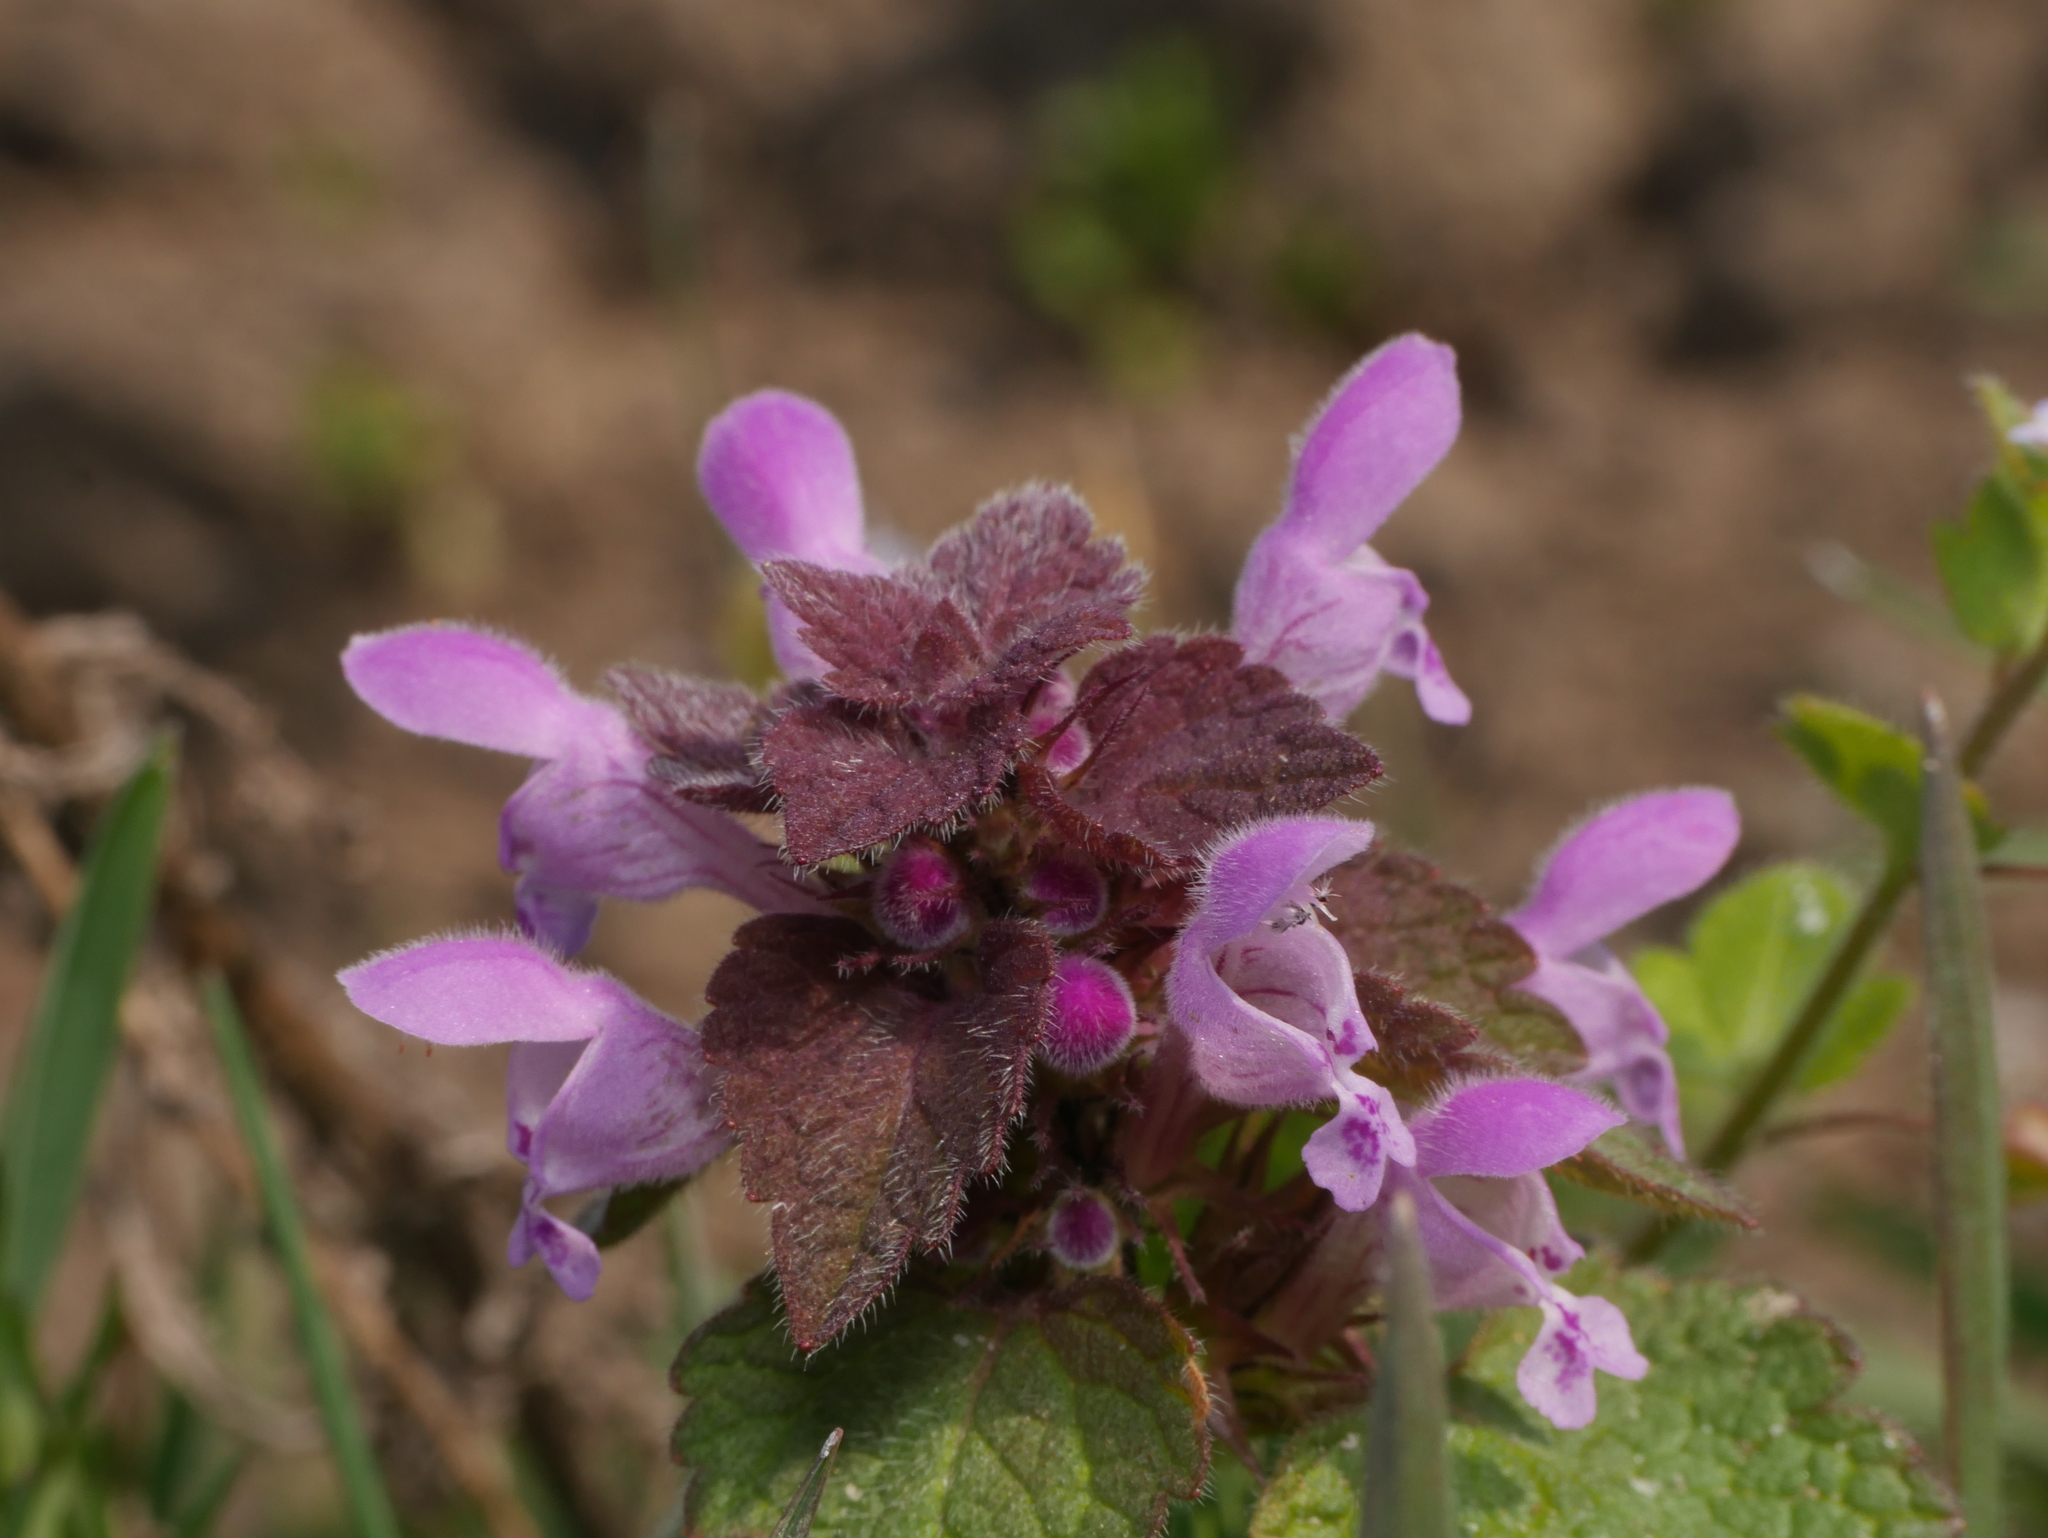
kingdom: Plantae
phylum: Tracheophyta
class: Magnoliopsida
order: Lamiales
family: Lamiaceae
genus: Lamium
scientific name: Lamium purpureum
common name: Red dead-nettle
